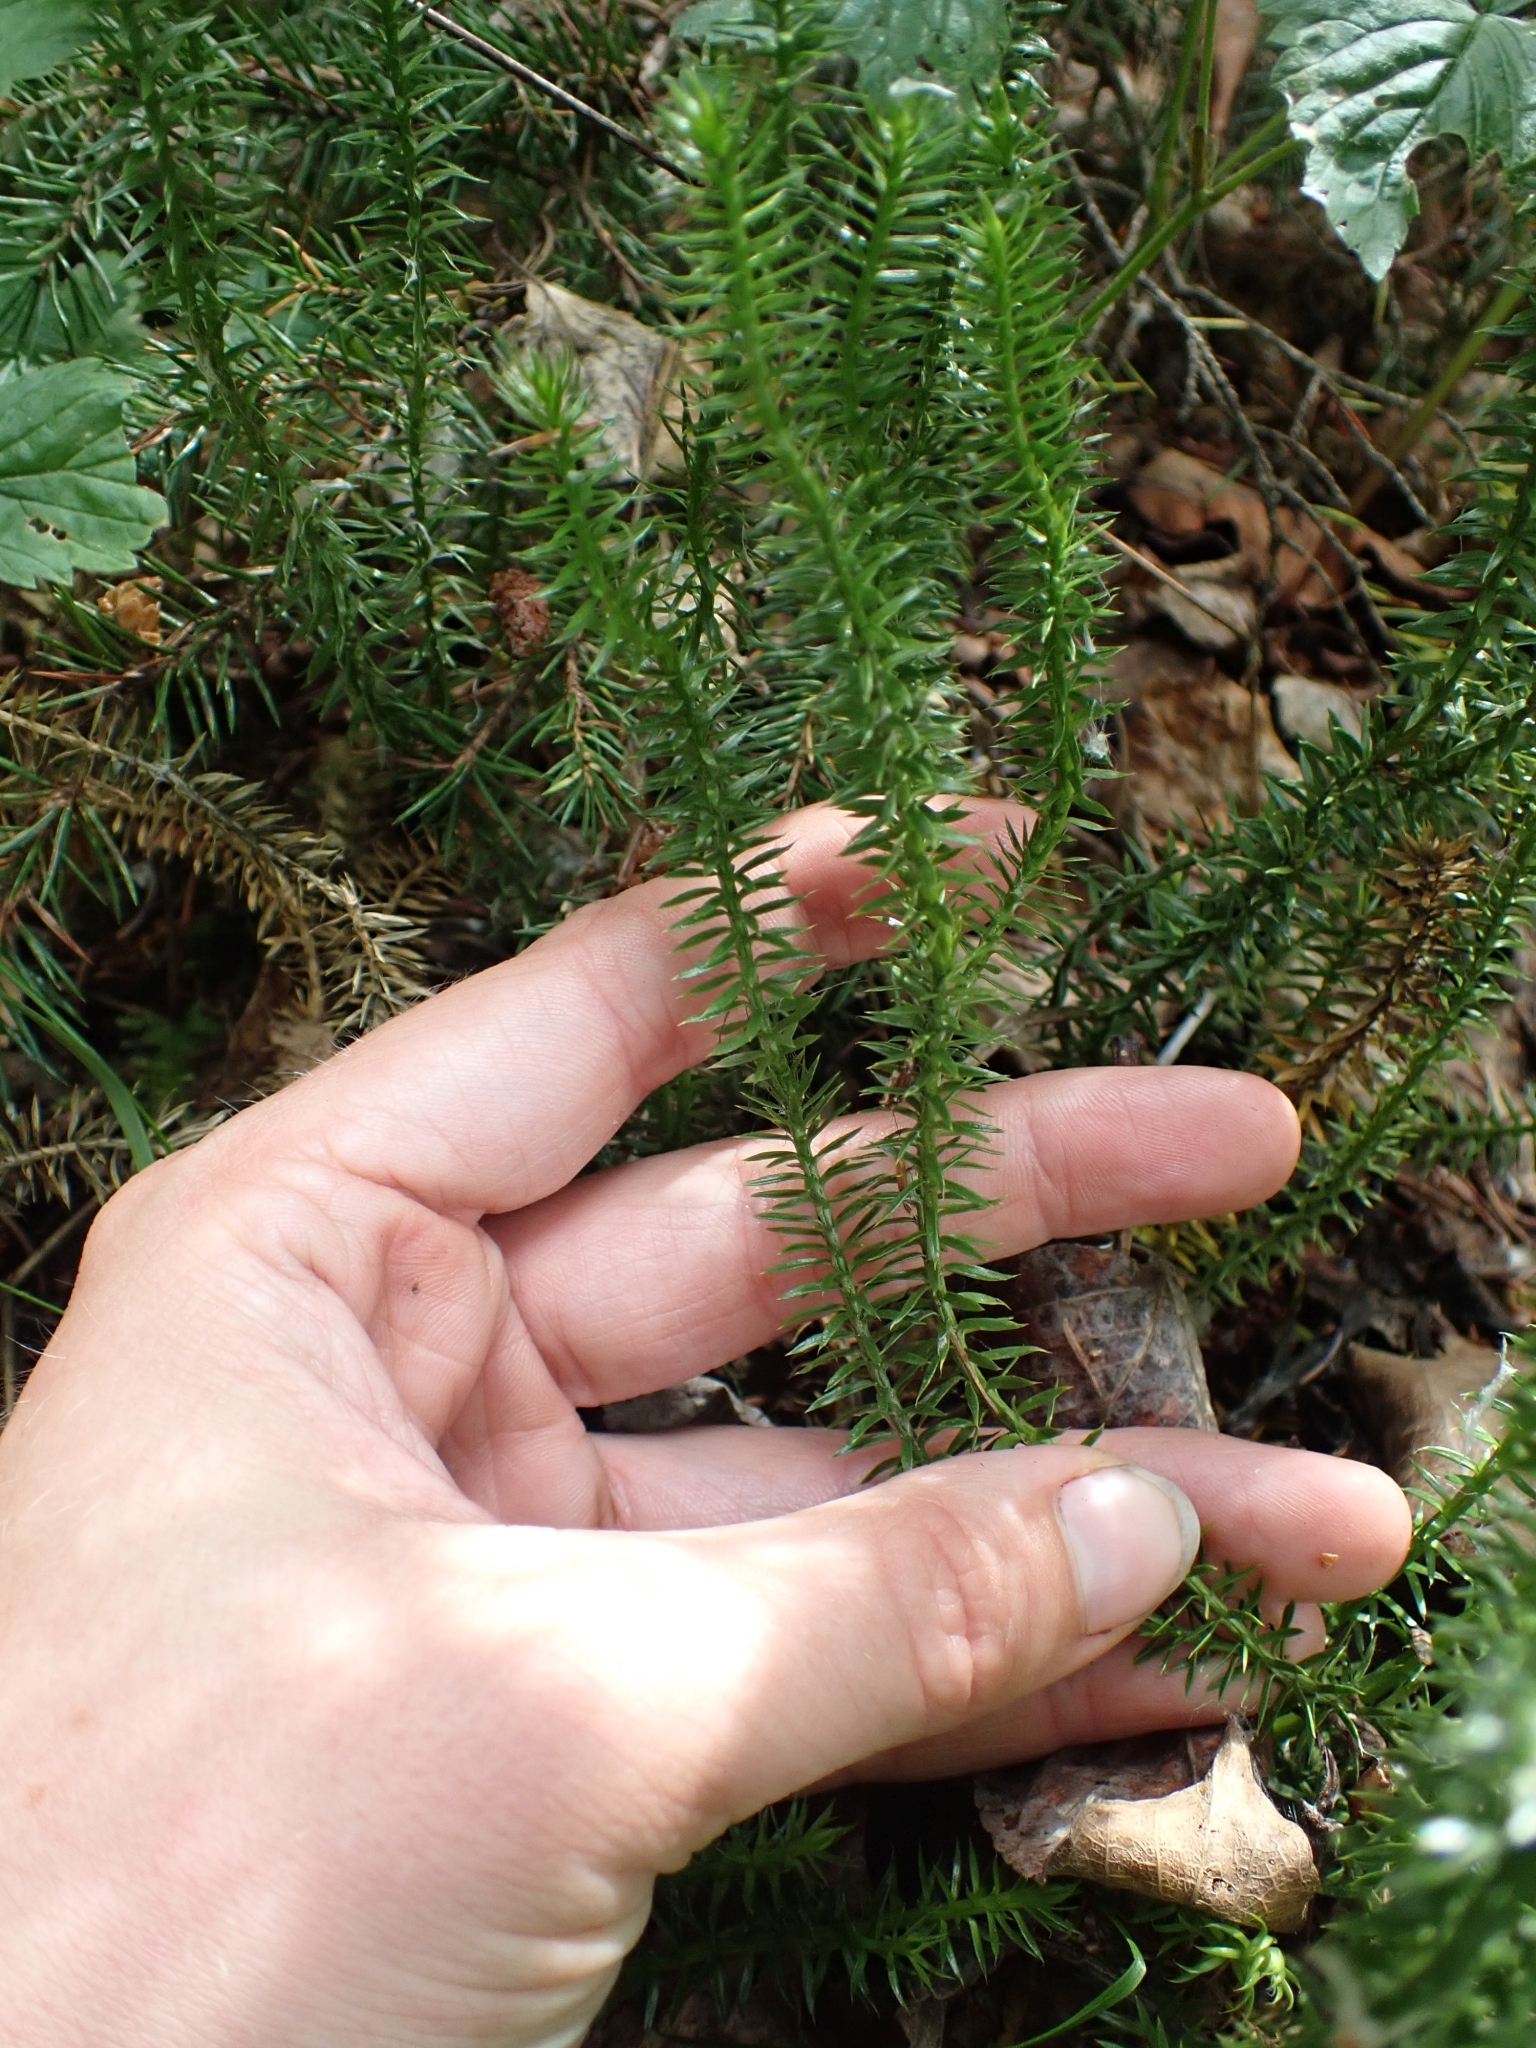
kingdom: Plantae
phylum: Tracheophyta
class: Lycopodiopsida
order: Lycopodiales
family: Lycopodiaceae
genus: Spinulum
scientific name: Spinulum annotinum
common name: Interrupted club-moss
